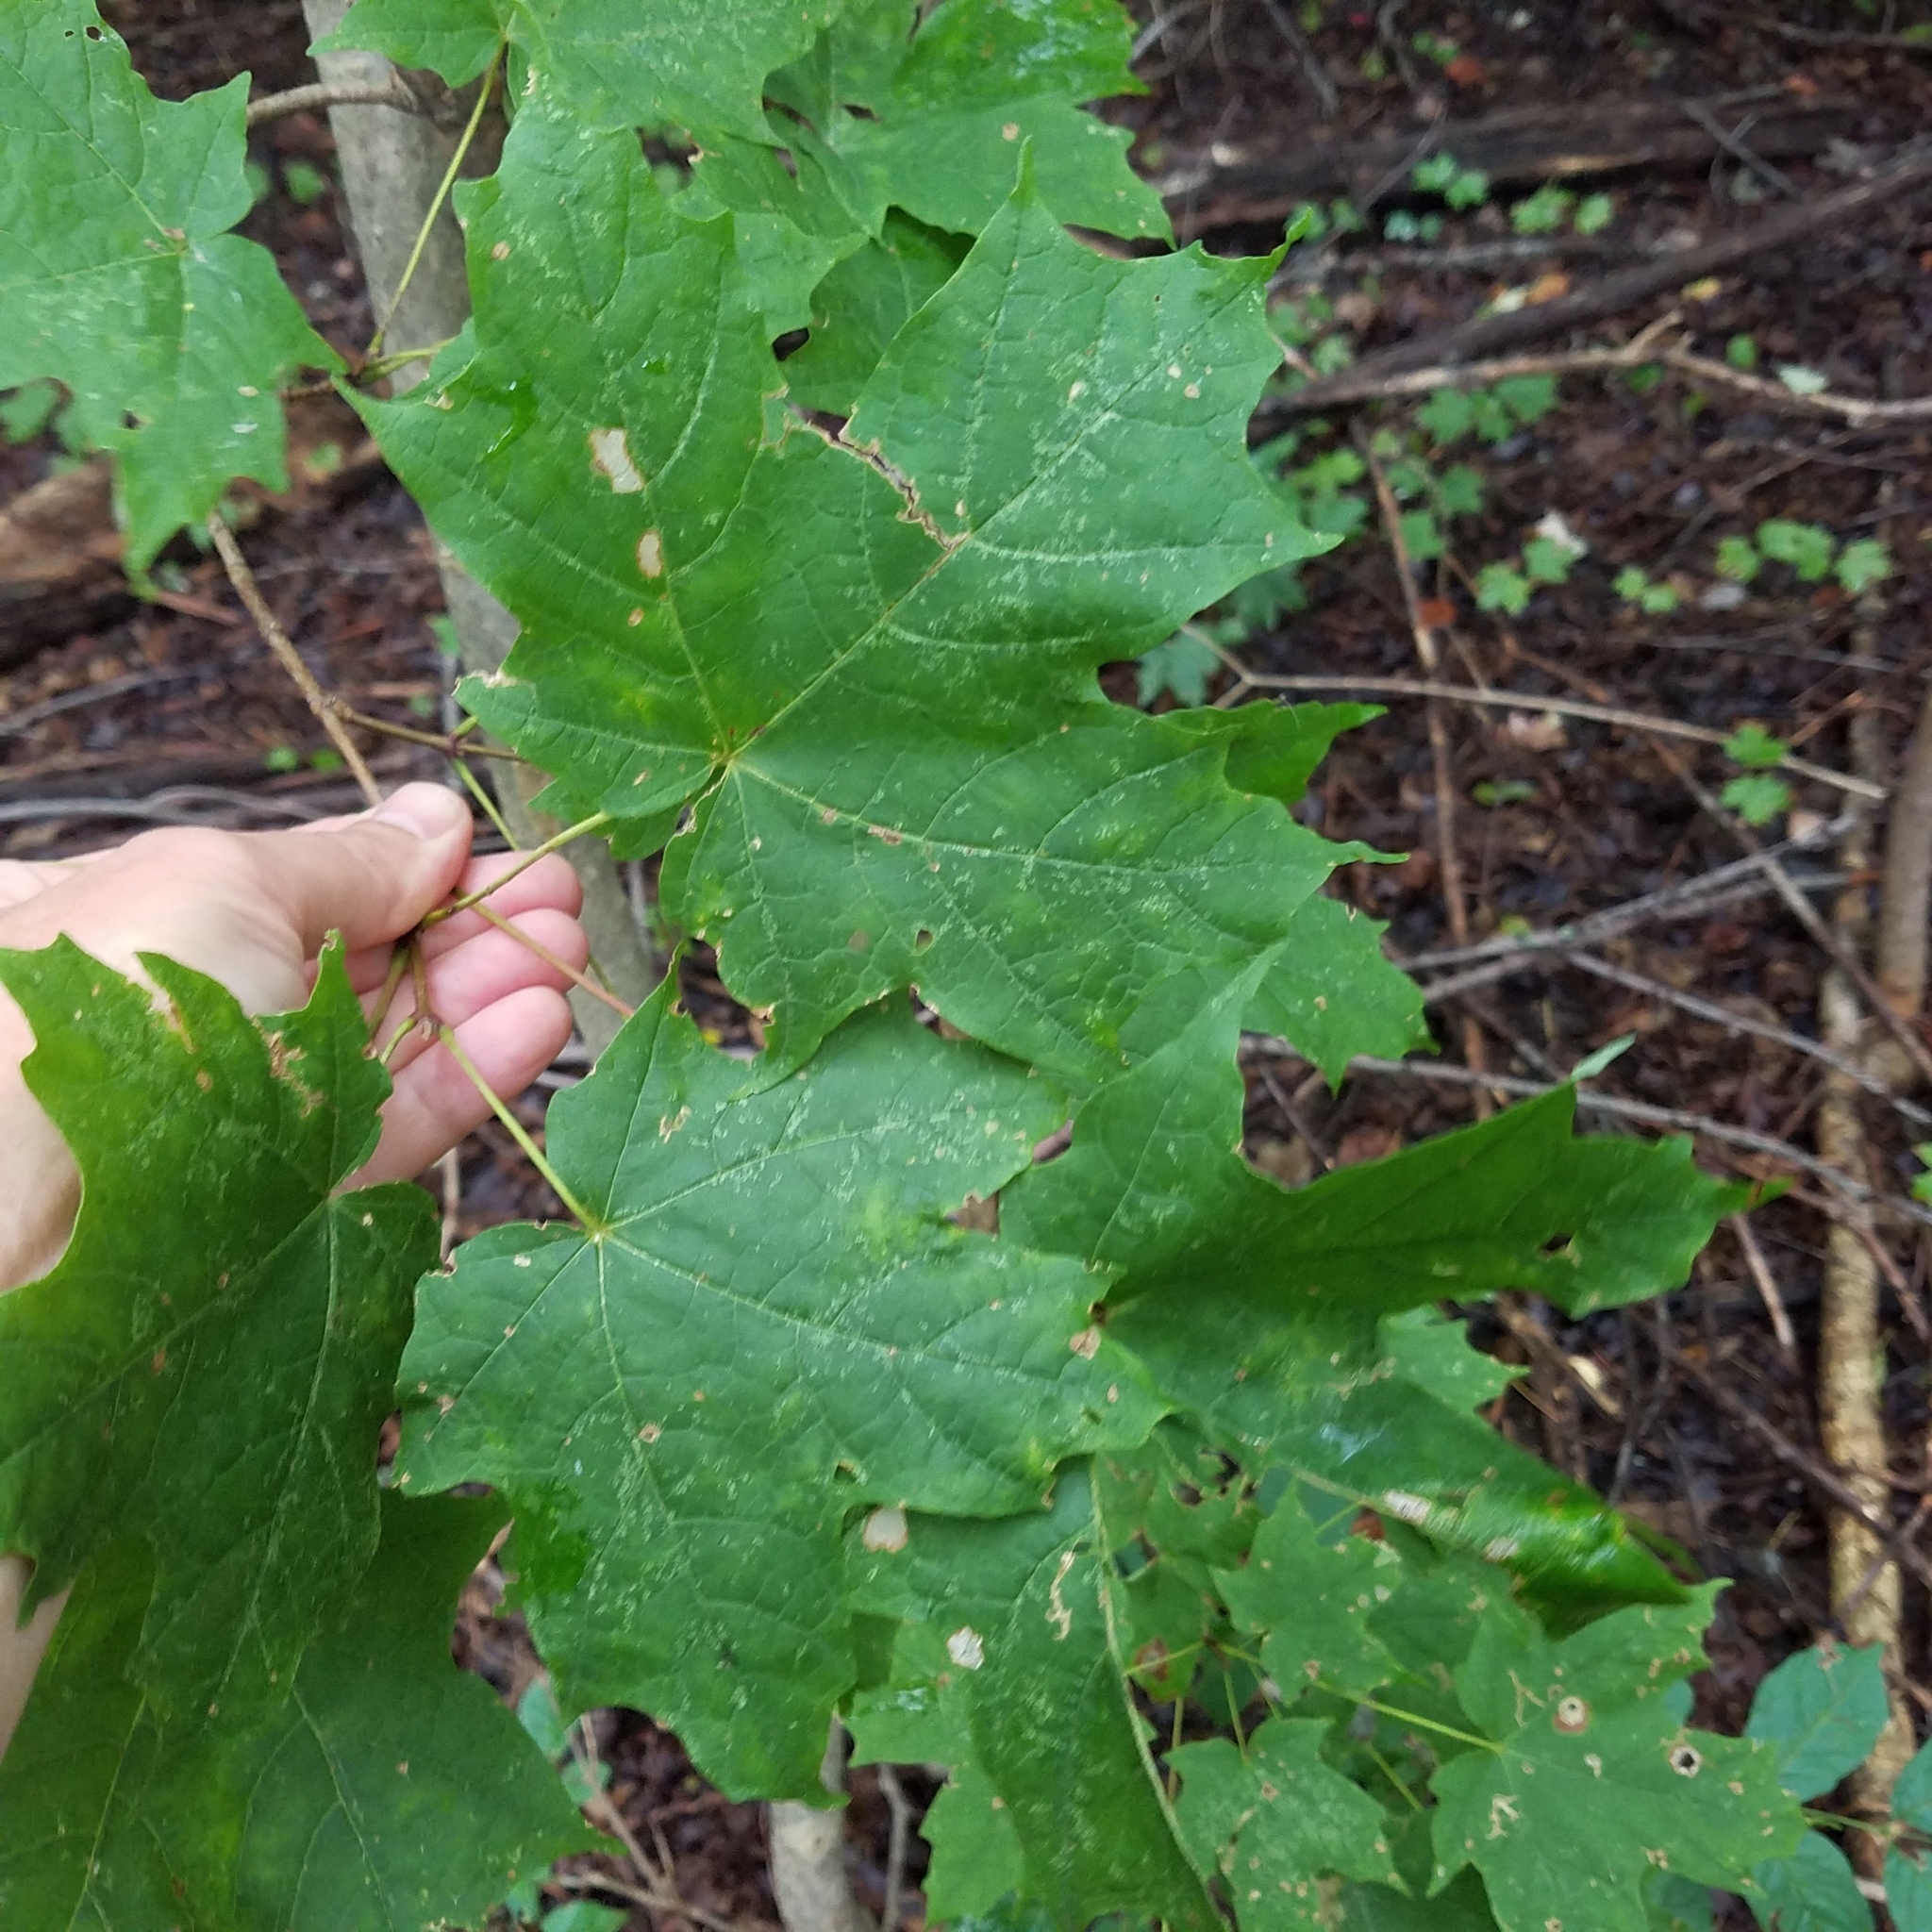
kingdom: Plantae
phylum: Tracheophyta
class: Magnoliopsida
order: Sapindales
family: Sapindaceae
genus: Acer
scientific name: Acer rubrum
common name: Red maple
